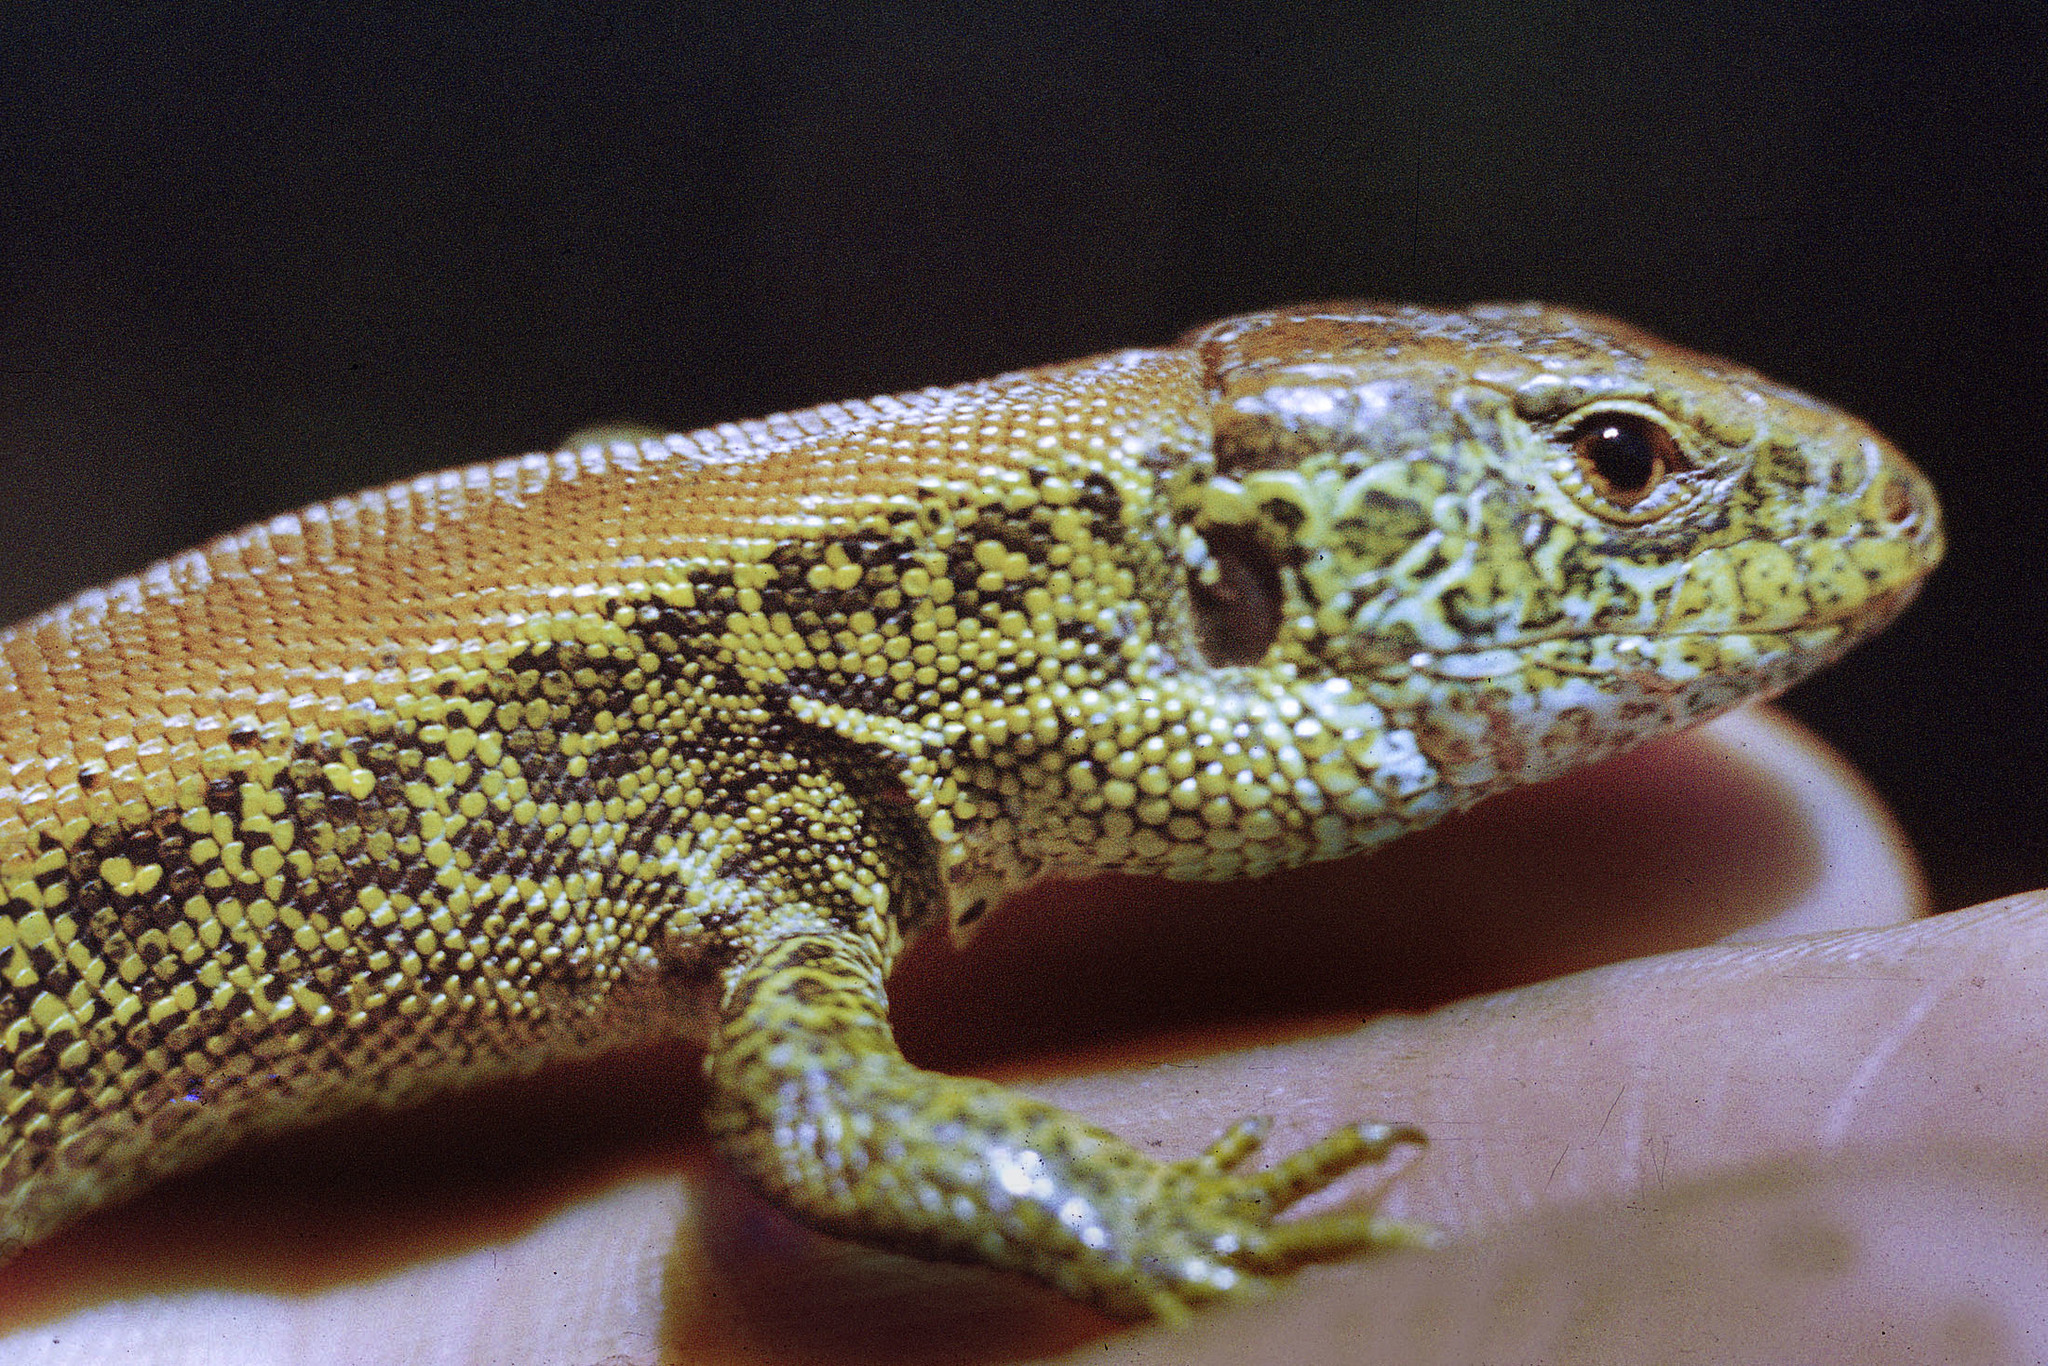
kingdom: Animalia
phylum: Chordata
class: Squamata
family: Lacertidae
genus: Lacerta
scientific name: Lacerta agilis
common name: Sand lizard
